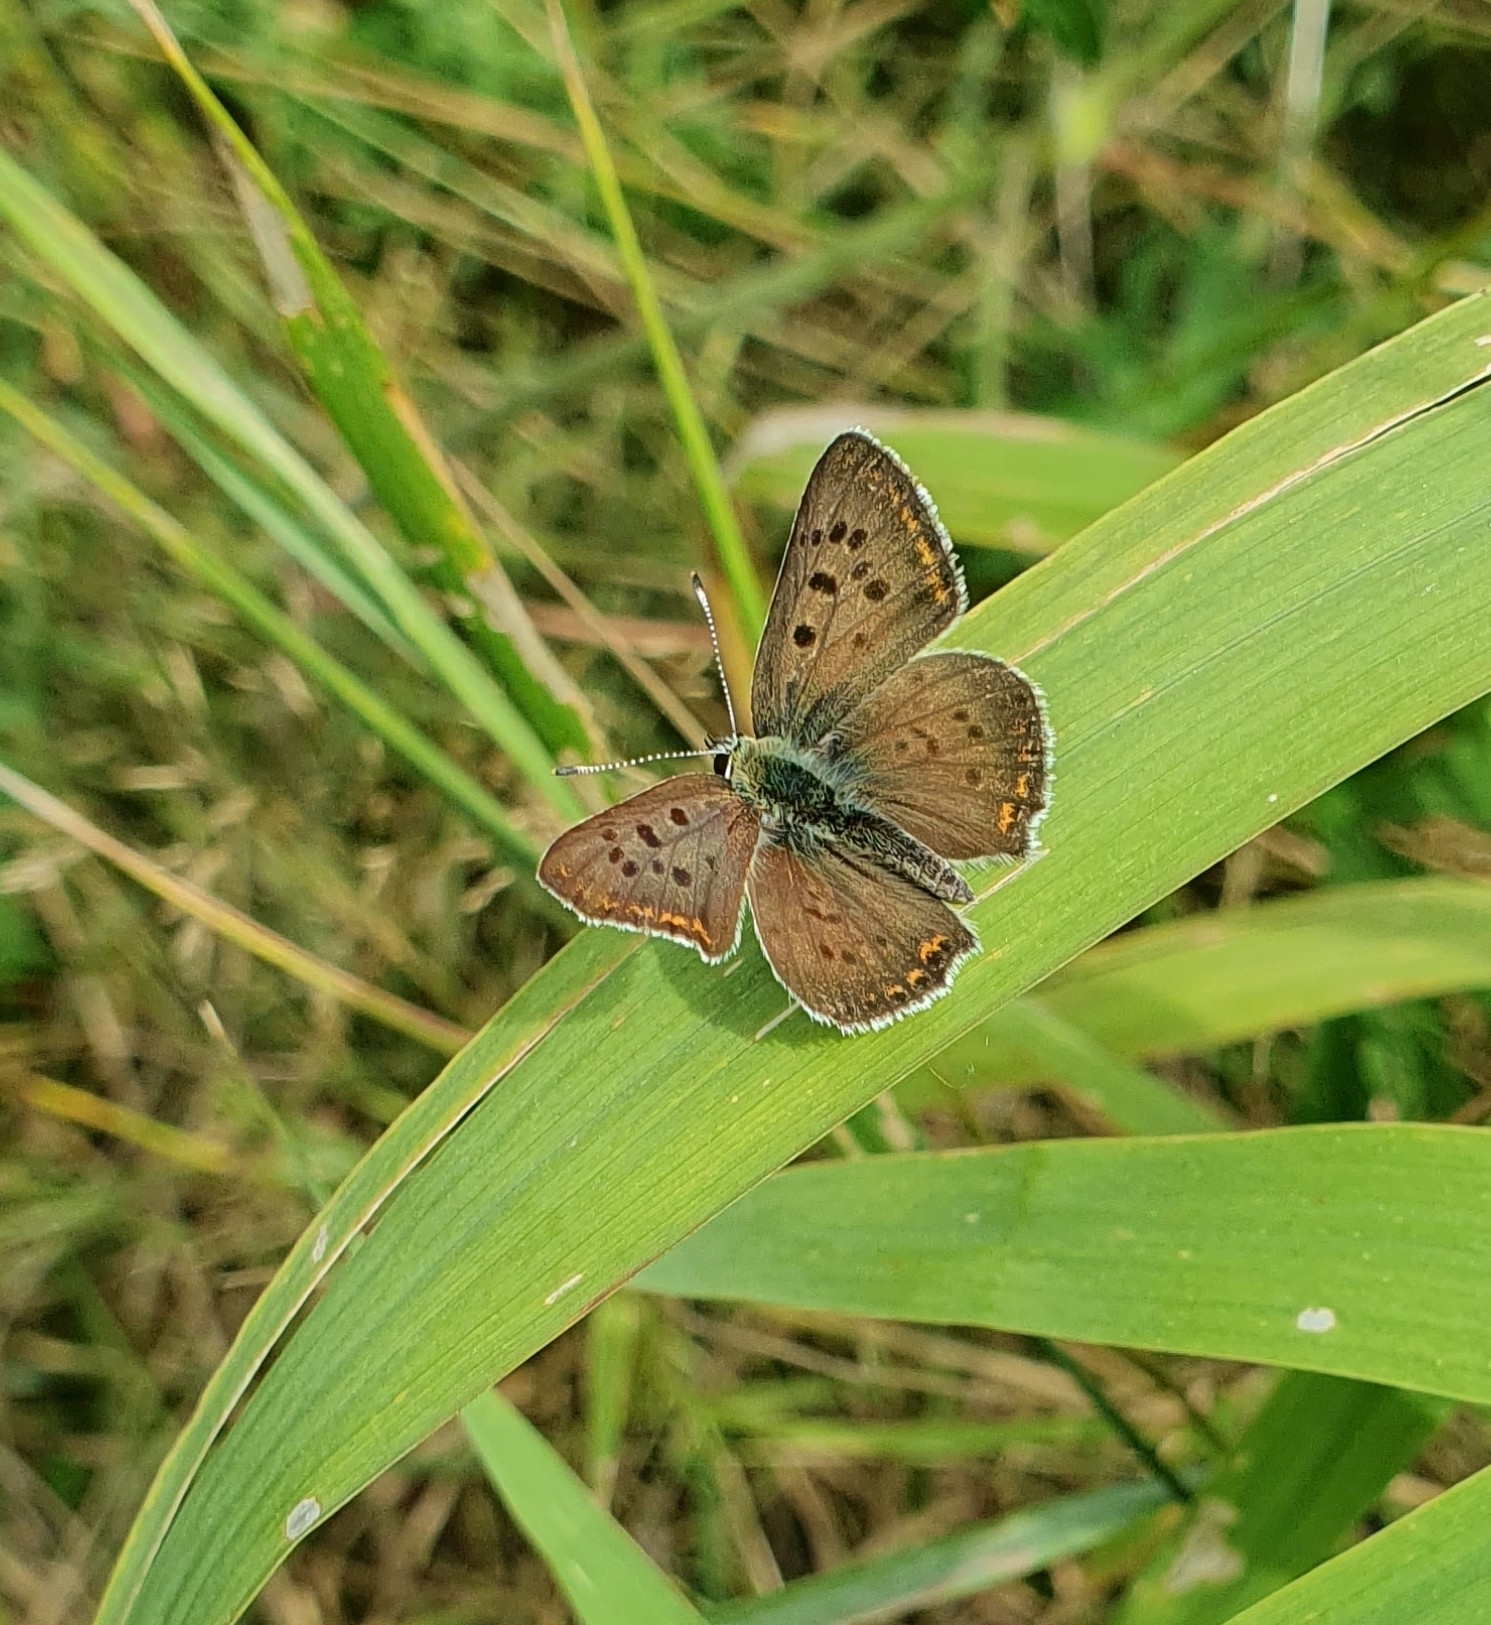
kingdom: Animalia
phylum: Arthropoda
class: Insecta
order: Lepidoptera
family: Lycaenidae
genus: Loweia
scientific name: Loweia tityrus
